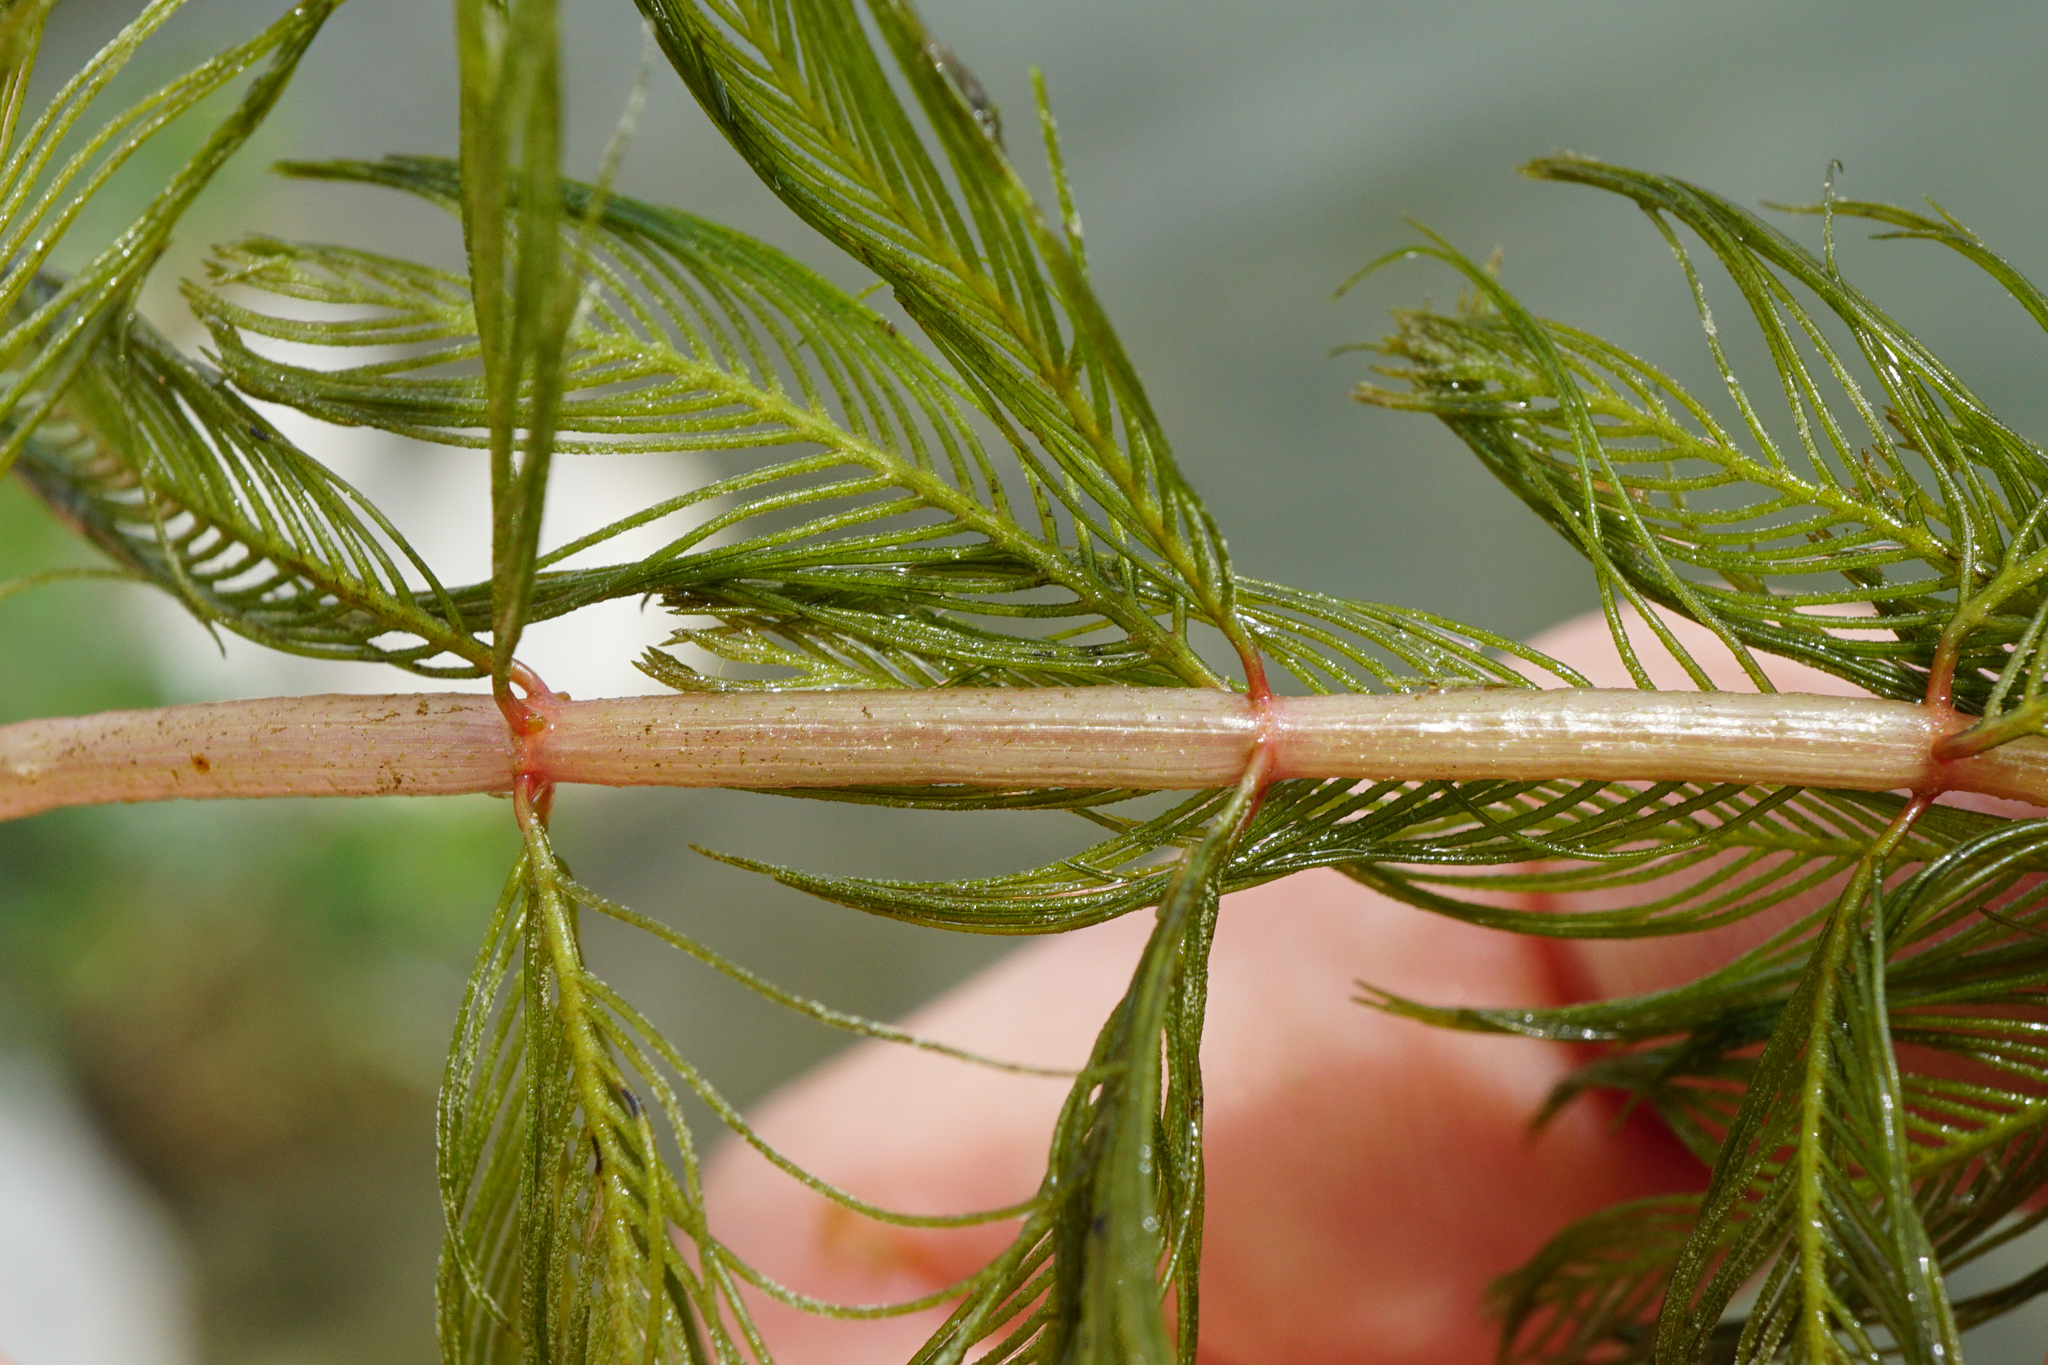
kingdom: Plantae
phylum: Tracheophyta
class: Magnoliopsida
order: Saxifragales
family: Haloragaceae
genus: Myriophyllum
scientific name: Myriophyllum spicatum
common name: Spiked water-milfoil
